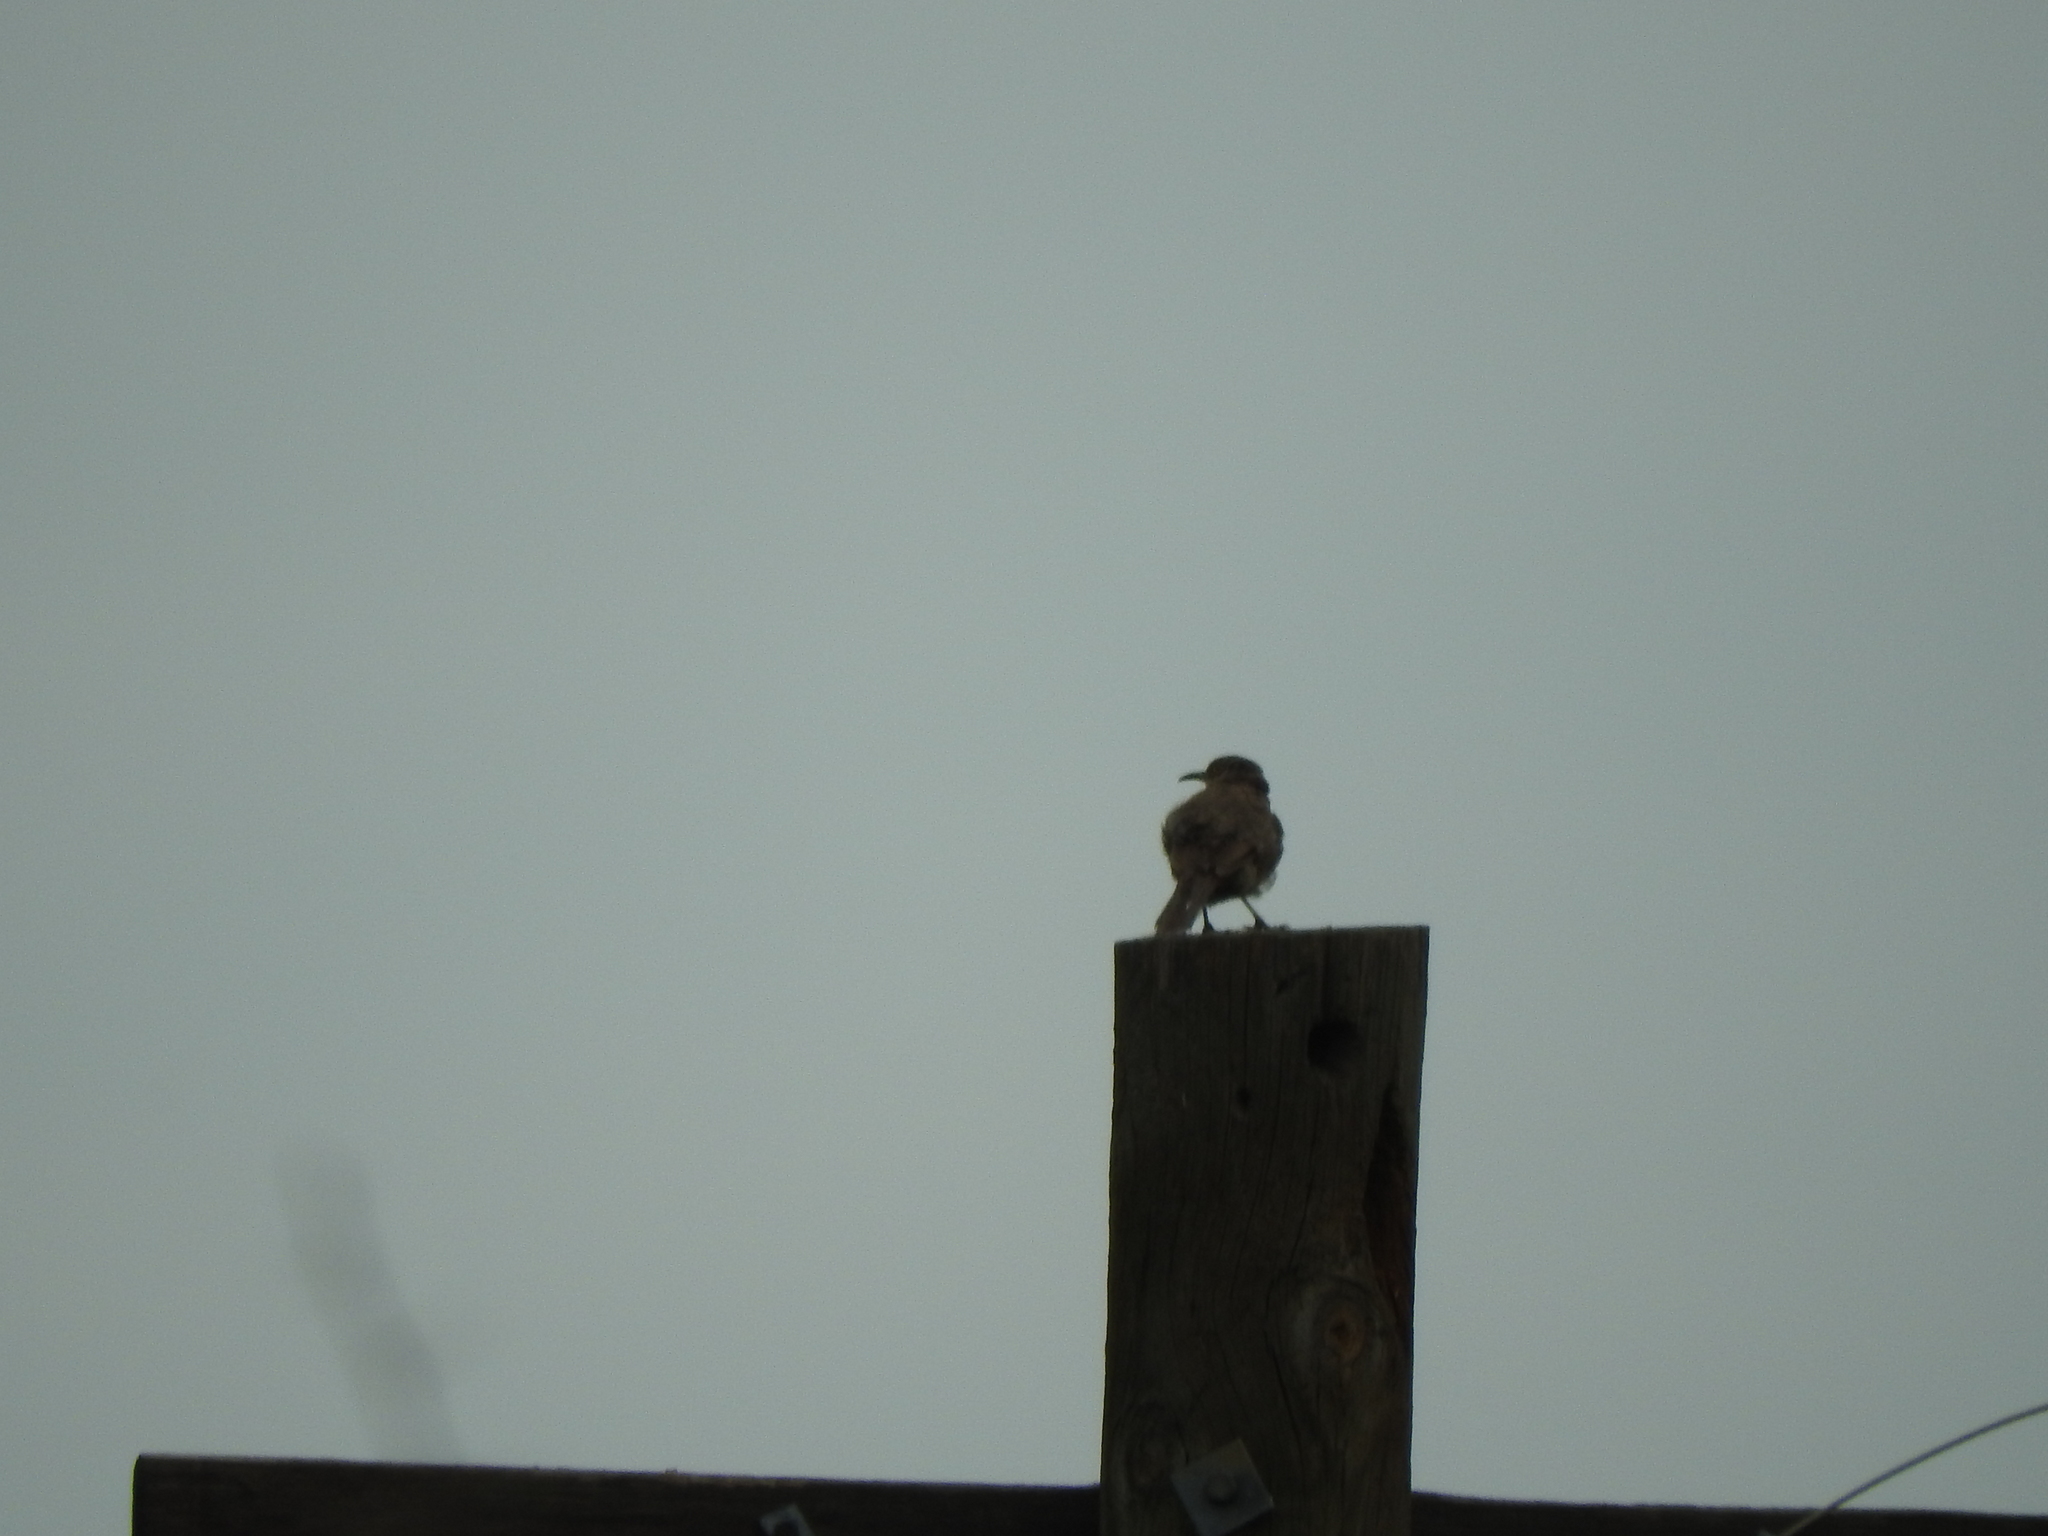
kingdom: Animalia
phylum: Chordata
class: Aves
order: Passeriformes
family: Mimidae
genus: Toxostoma
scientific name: Toxostoma curvirostre
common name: Curve-billed thrasher
